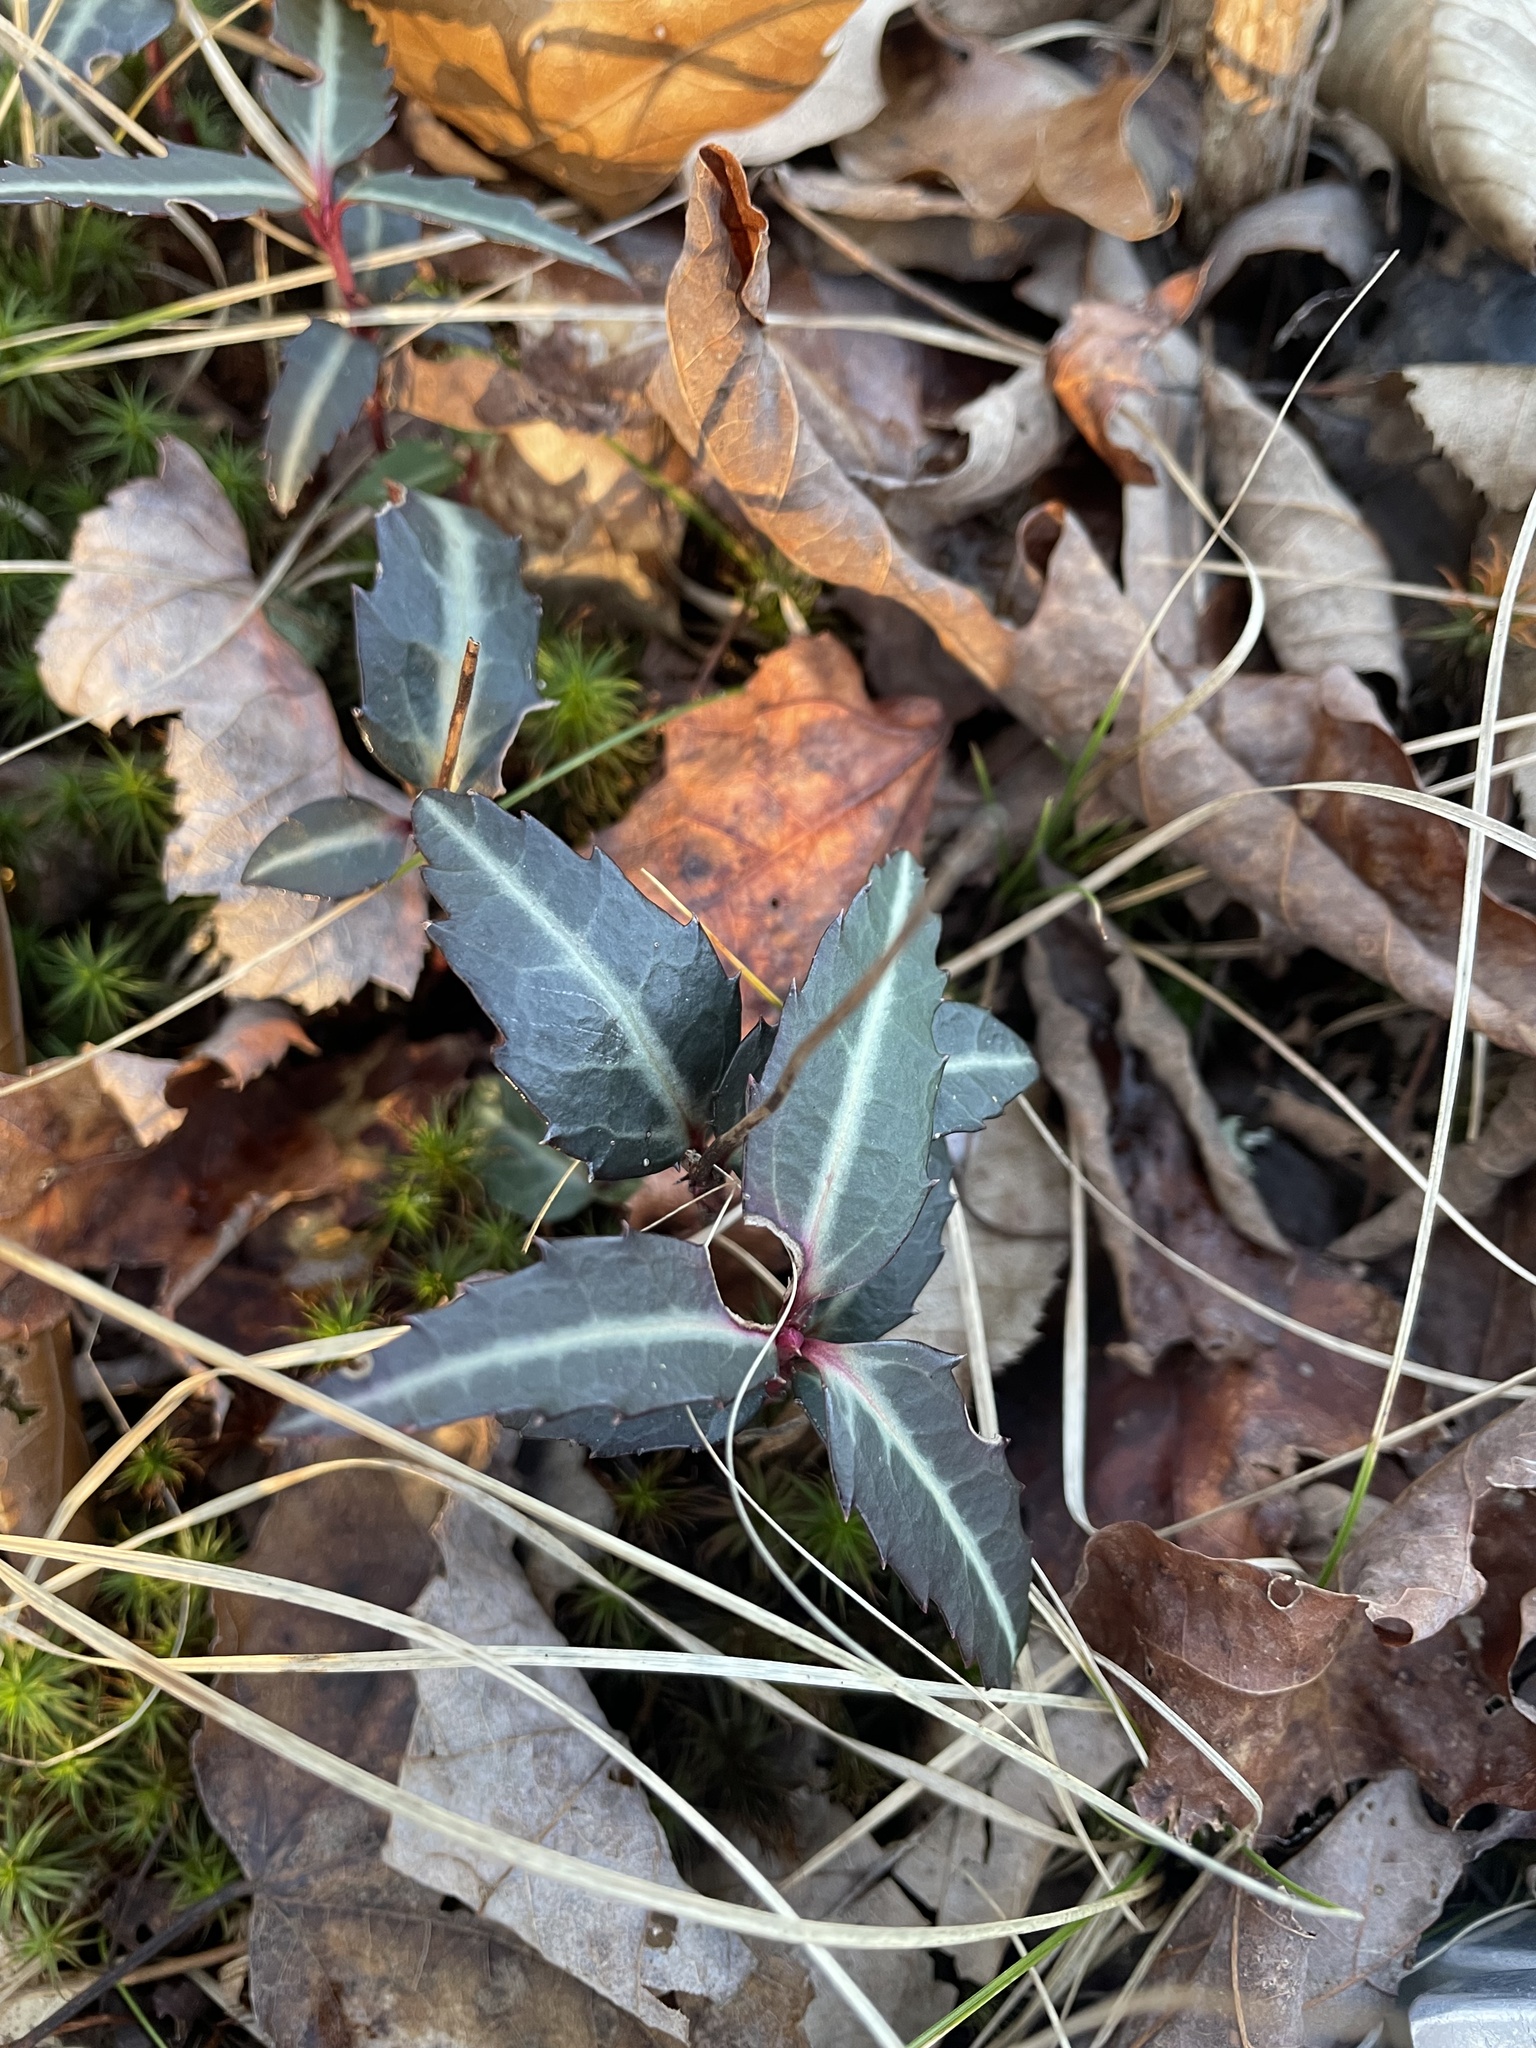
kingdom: Plantae
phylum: Tracheophyta
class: Magnoliopsida
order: Ericales
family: Ericaceae
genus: Chimaphila
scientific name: Chimaphila maculata
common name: Spotted pipsissewa
